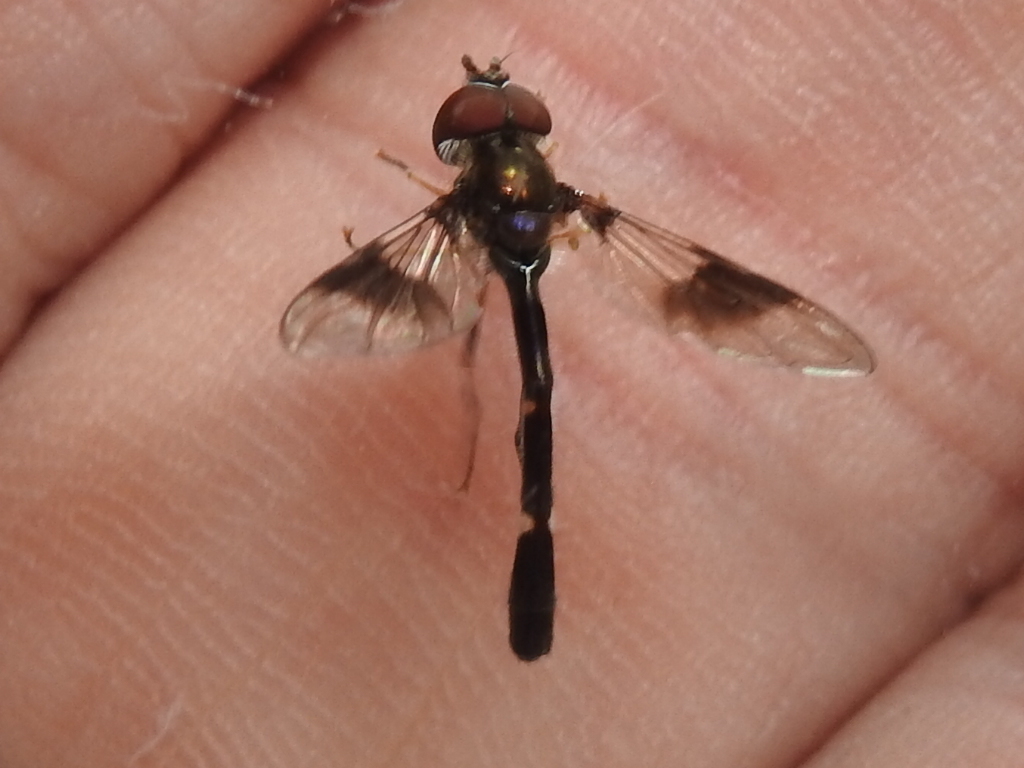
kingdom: Animalia
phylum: Arthropoda
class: Insecta
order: Diptera
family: Syrphidae
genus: Hypocritanus
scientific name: Hypocritanus fascipennis
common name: Eastern band-winged hover fly
